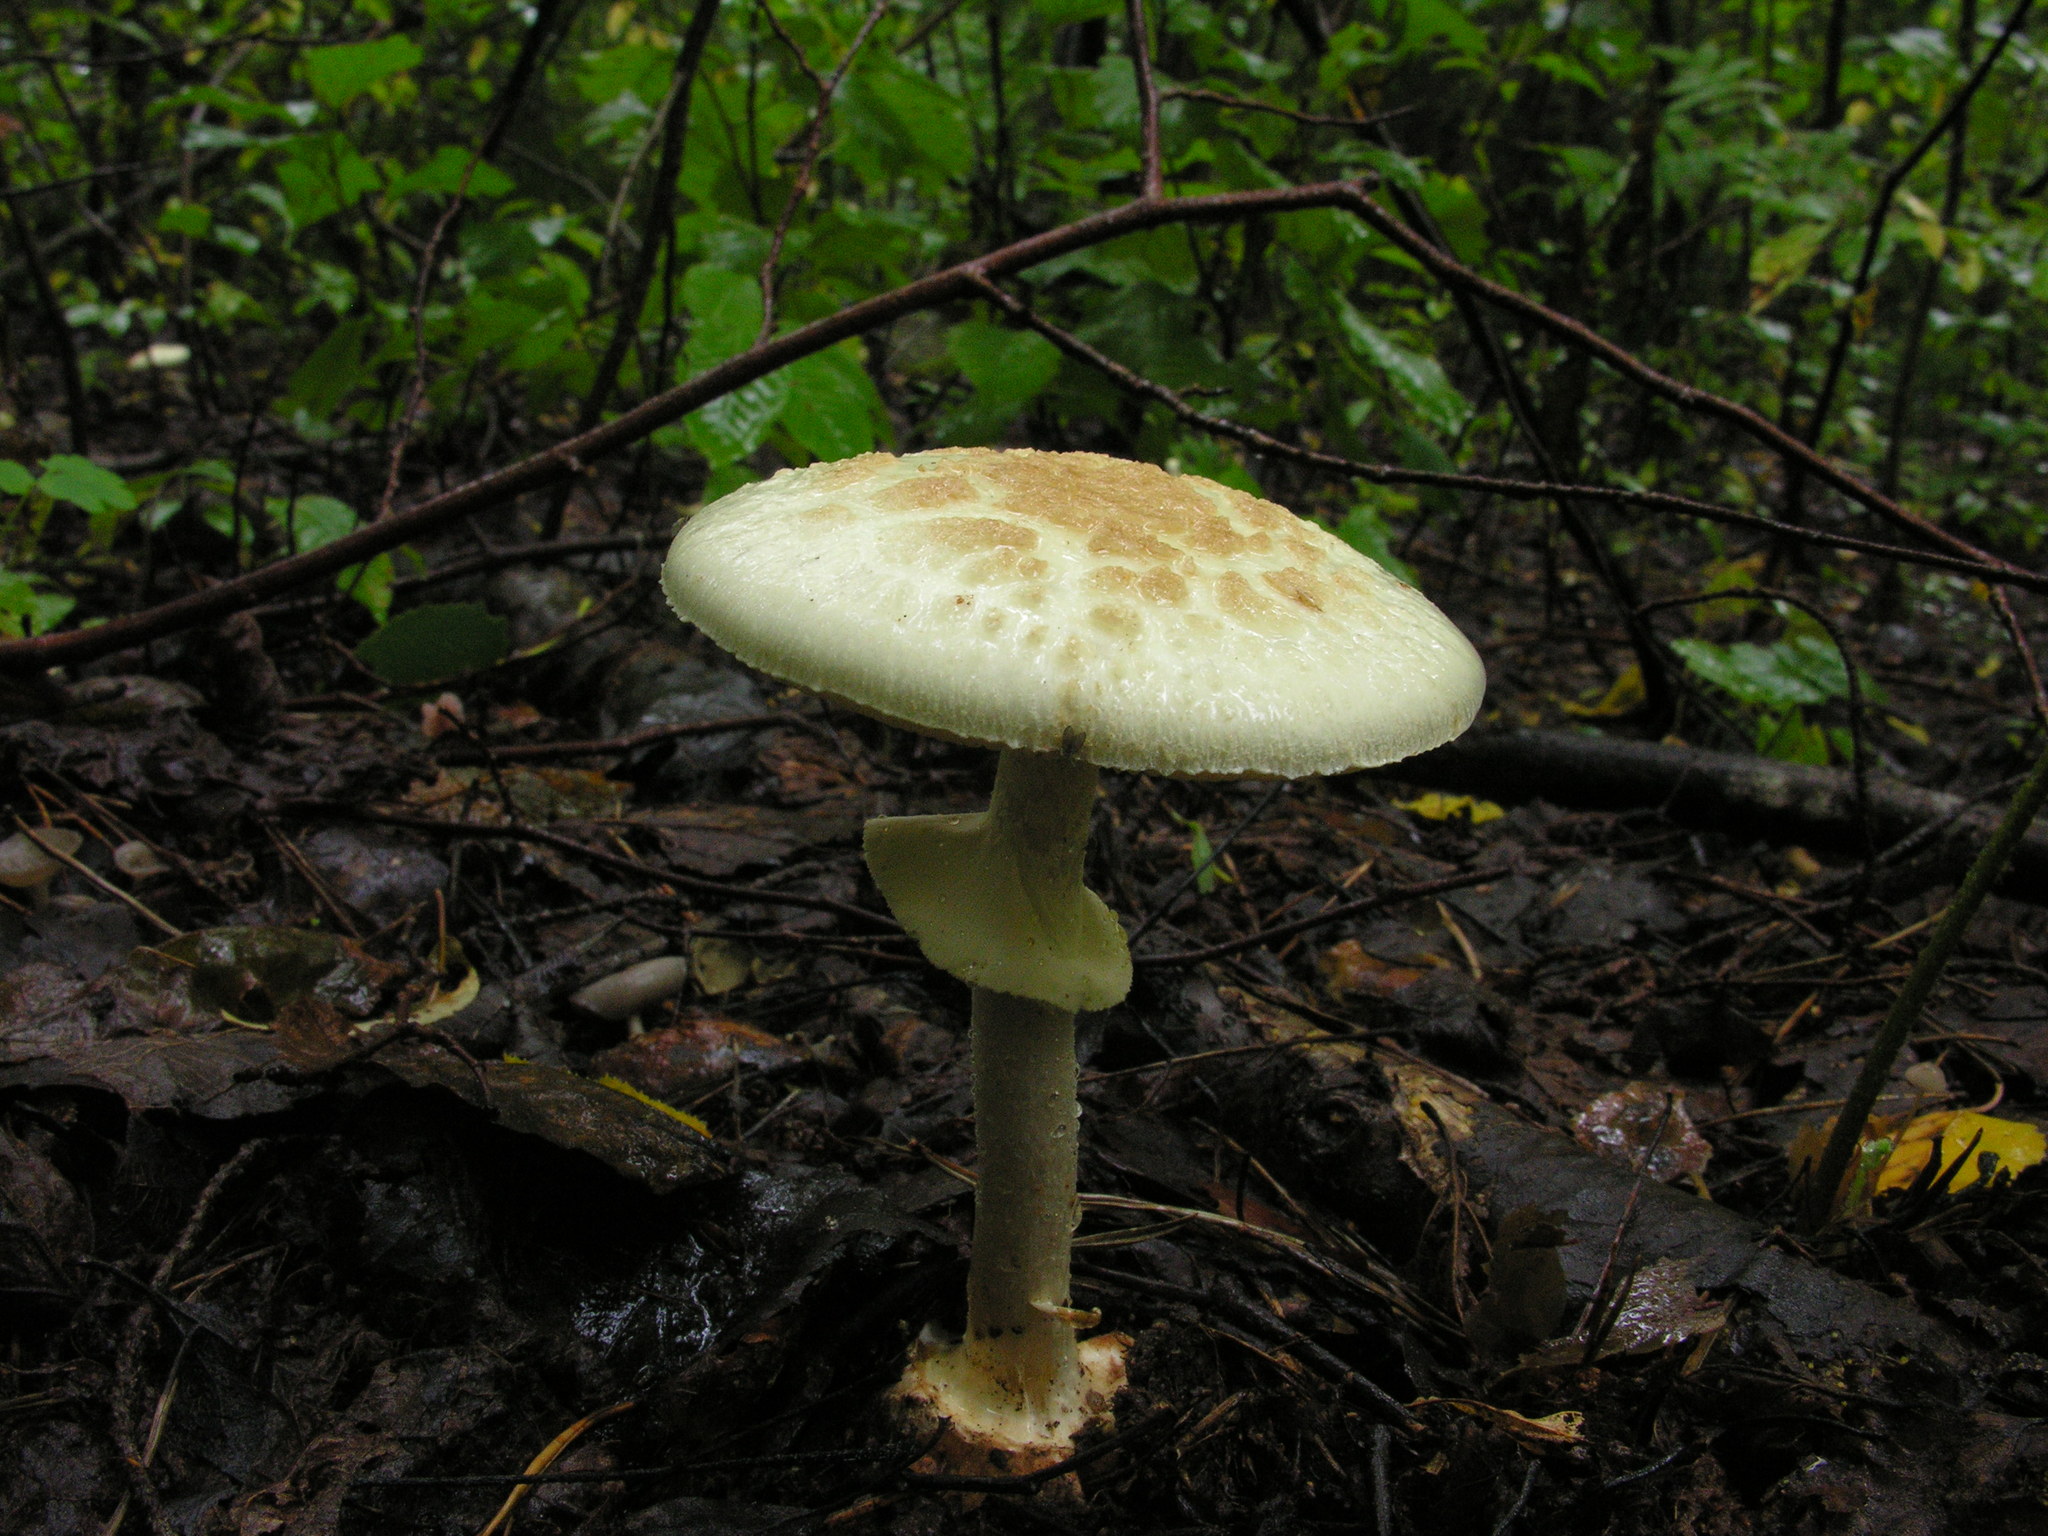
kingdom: Fungi
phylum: Basidiomycota
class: Agaricomycetes
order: Agaricales
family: Amanitaceae
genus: Amanita
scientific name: Amanita citrina
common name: False death-cap
